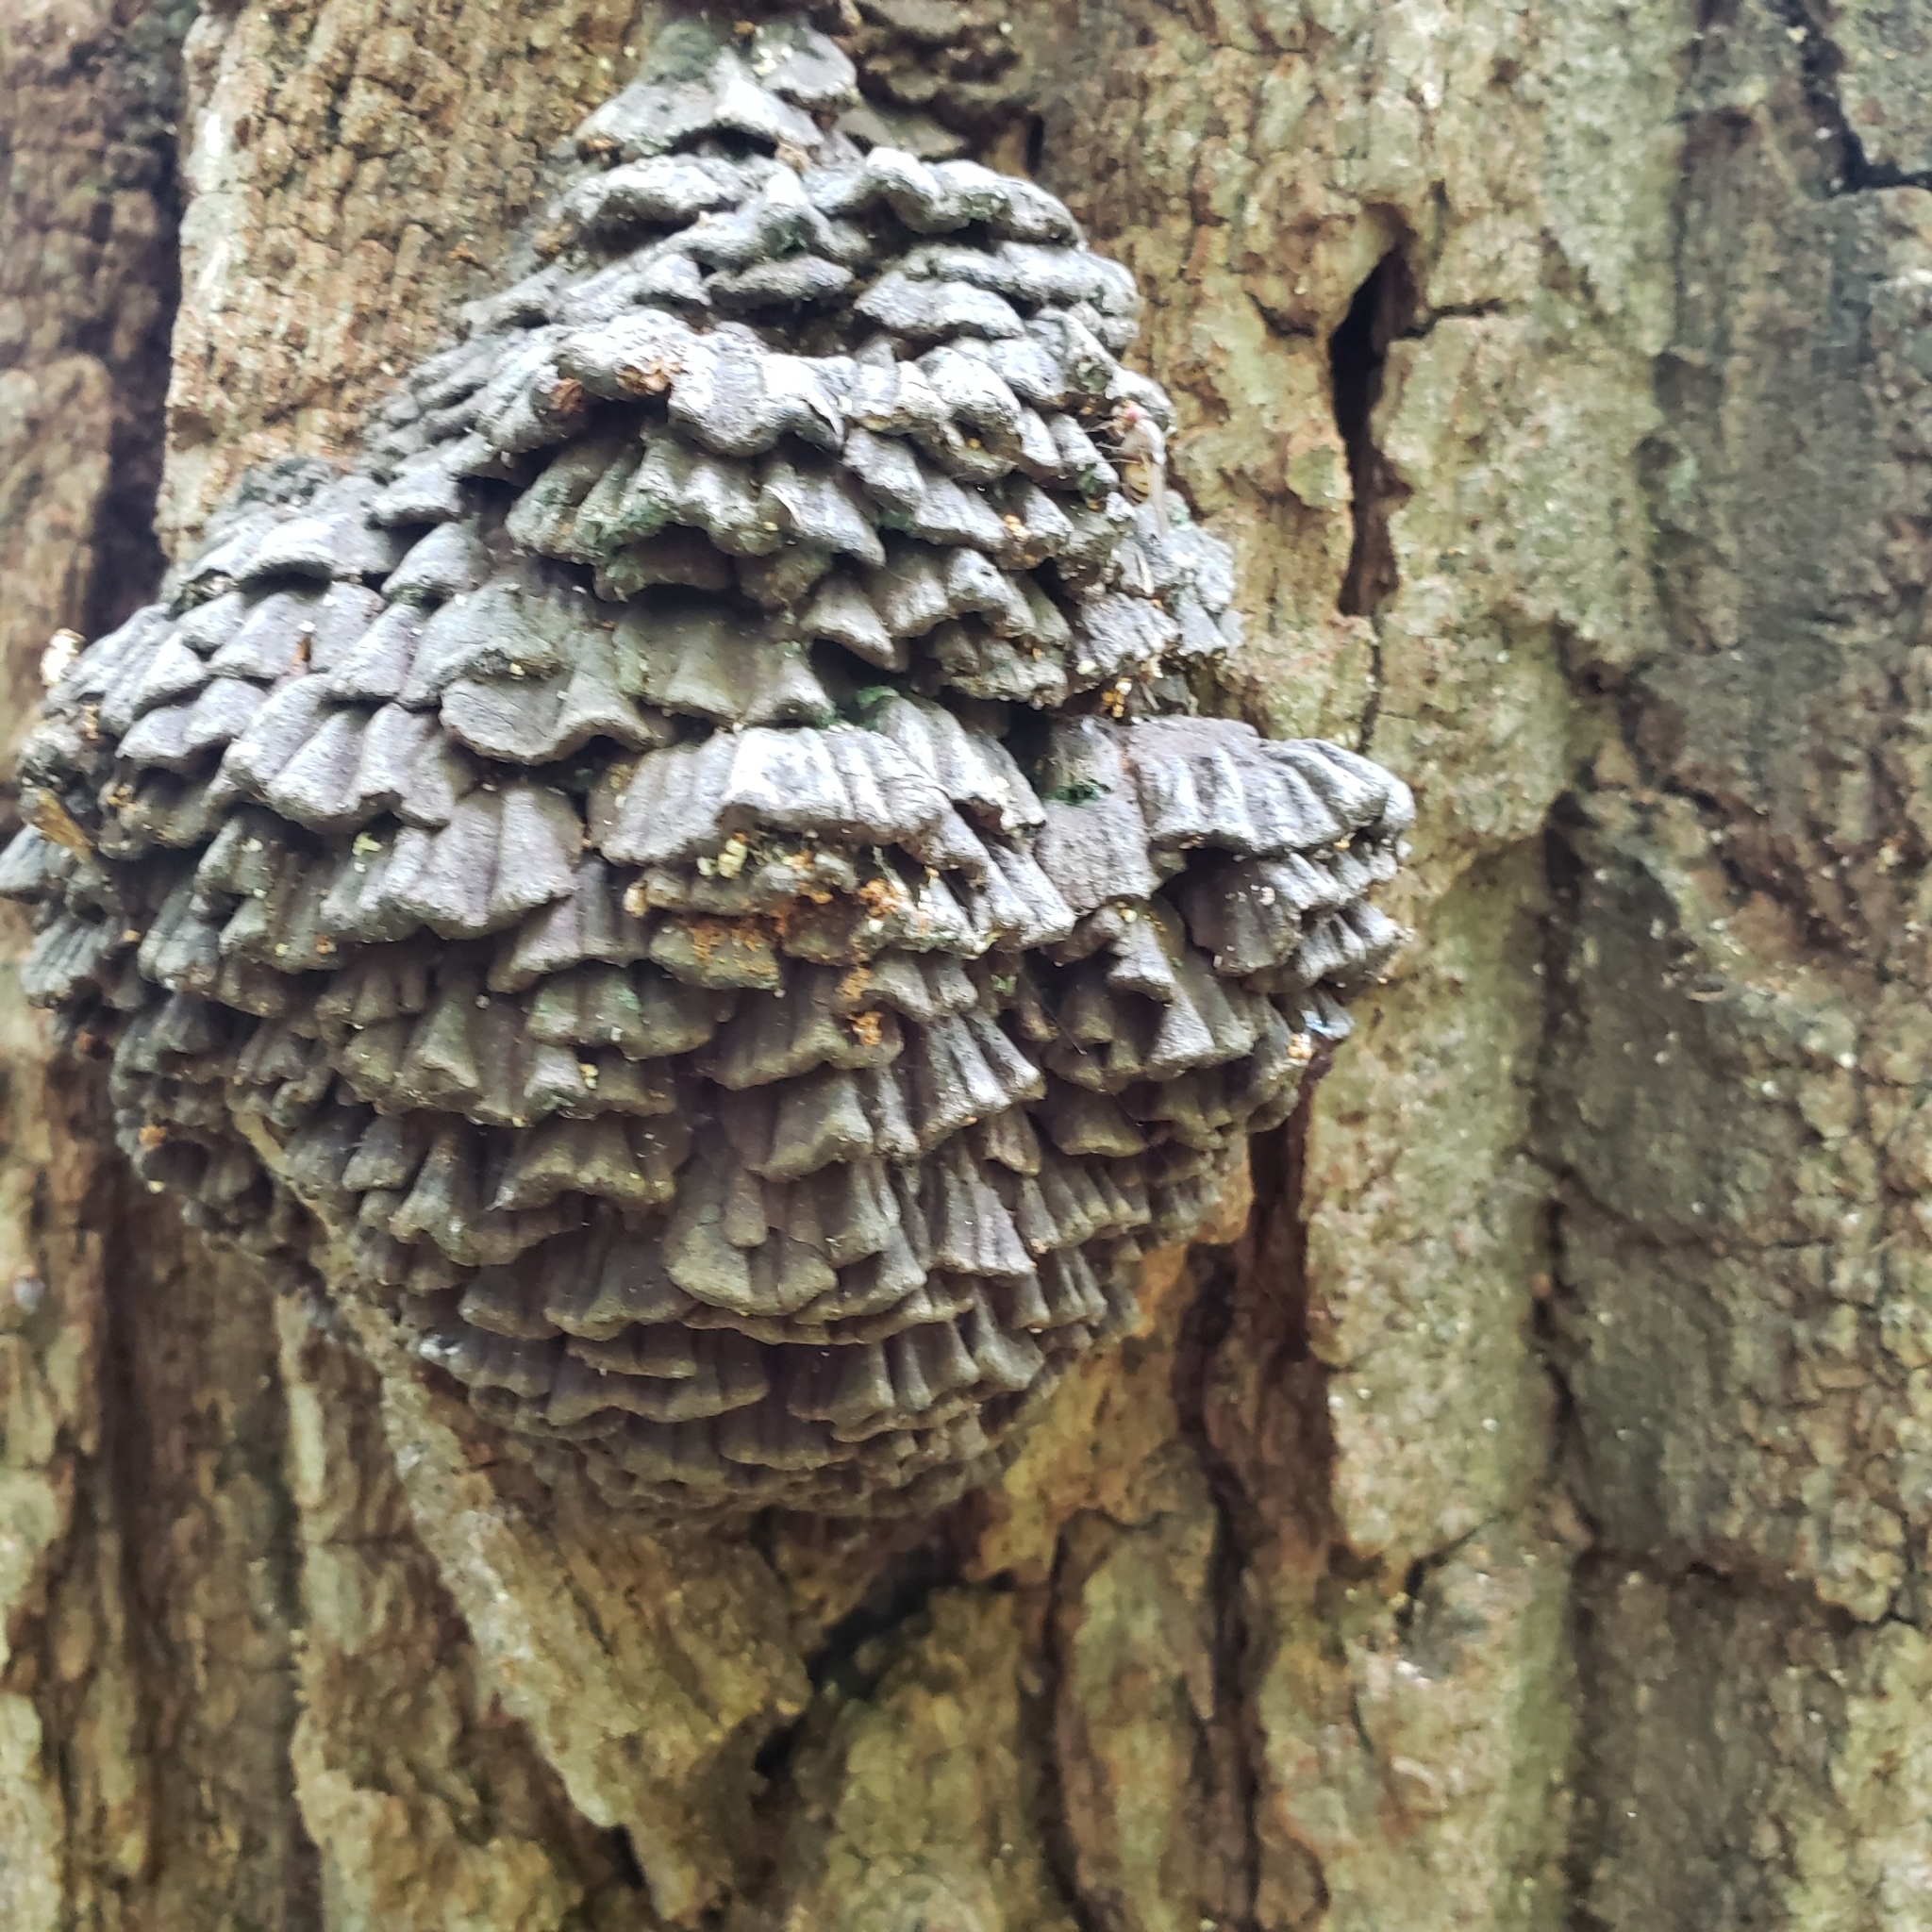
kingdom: Fungi
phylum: Basidiomycota
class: Agaricomycetes
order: Polyporales
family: Polyporaceae
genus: Globifomes
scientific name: Globifomes graveolens
